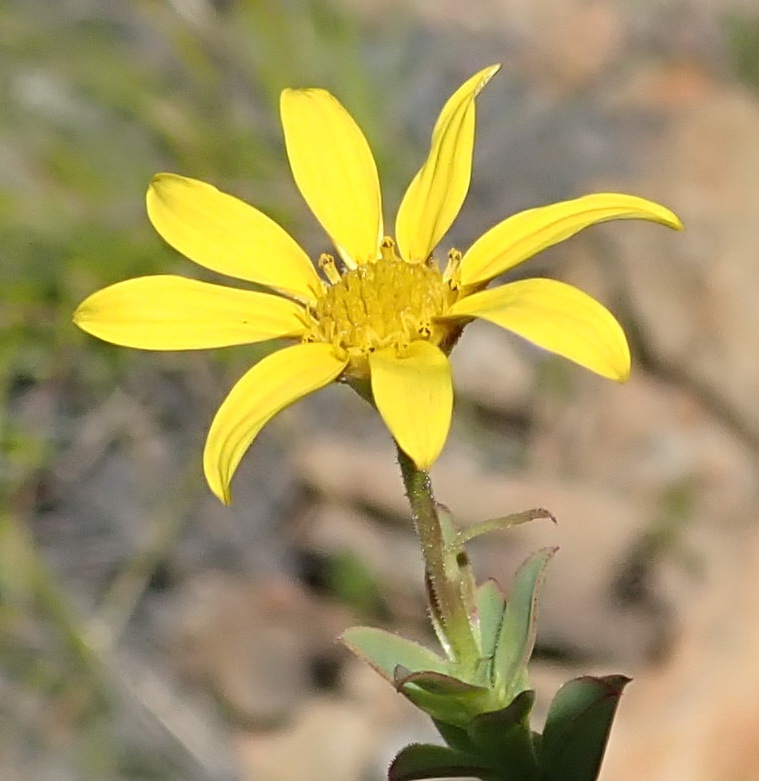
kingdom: Plantae
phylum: Tracheophyta
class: Magnoliopsida
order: Asterales
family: Asteraceae
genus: Osteospermum
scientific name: Osteospermum polygaloides
